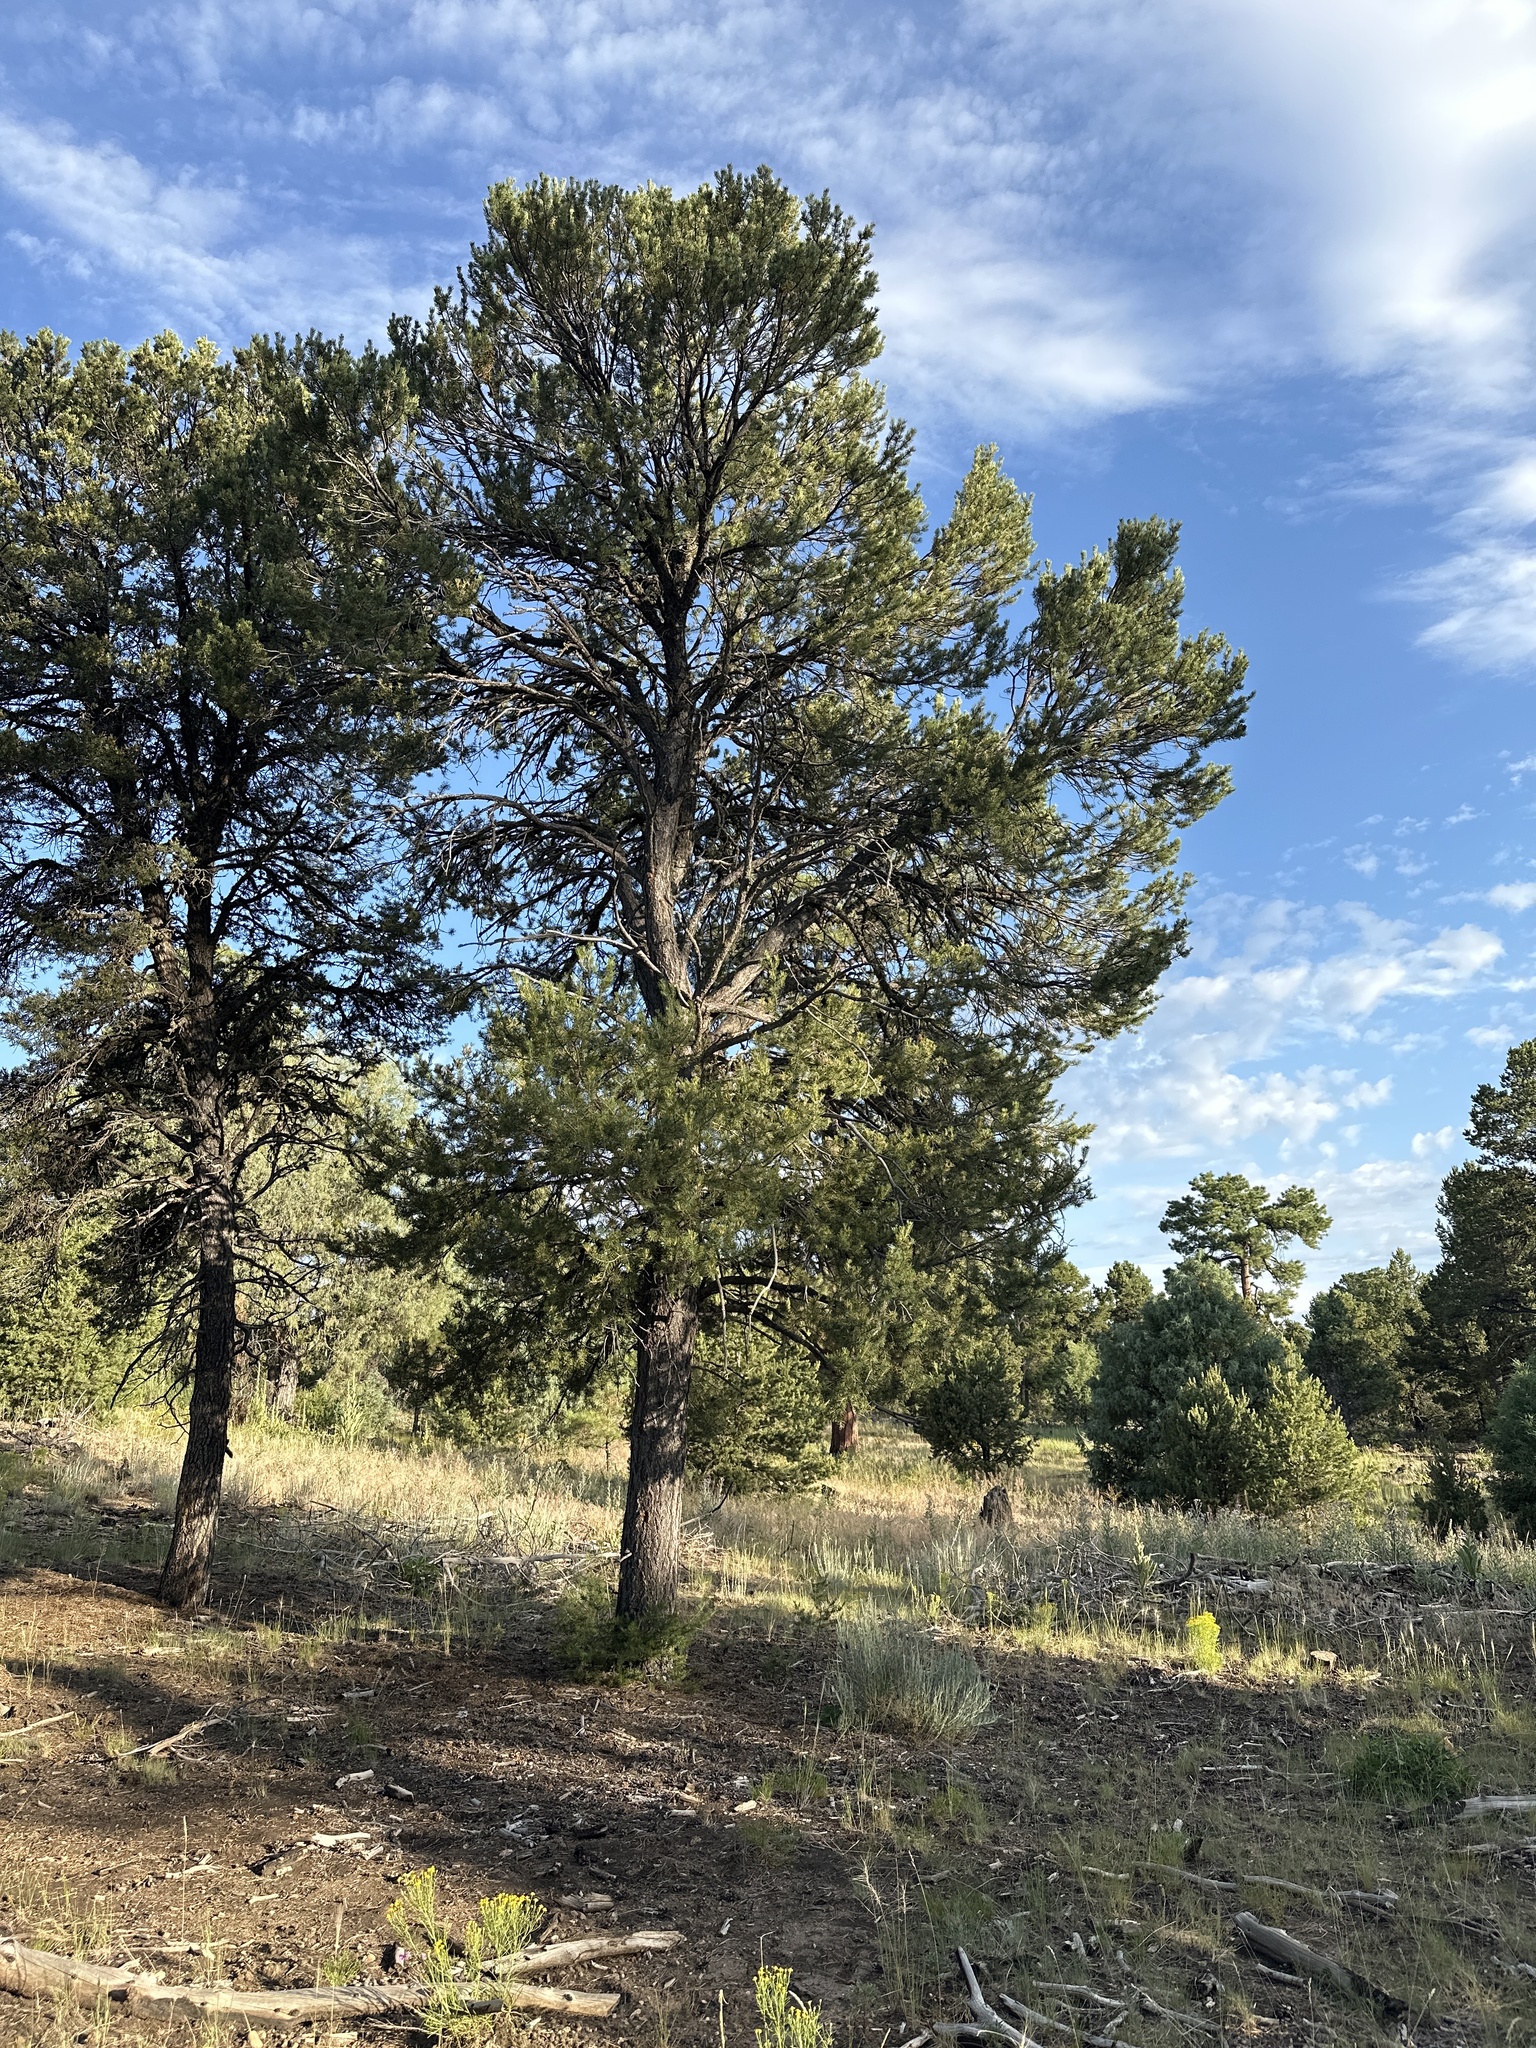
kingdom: Plantae
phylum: Tracheophyta
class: Pinopsida
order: Pinales
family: Pinaceae
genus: Pinus
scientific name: Pinus edulis
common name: Colorado pinyon
